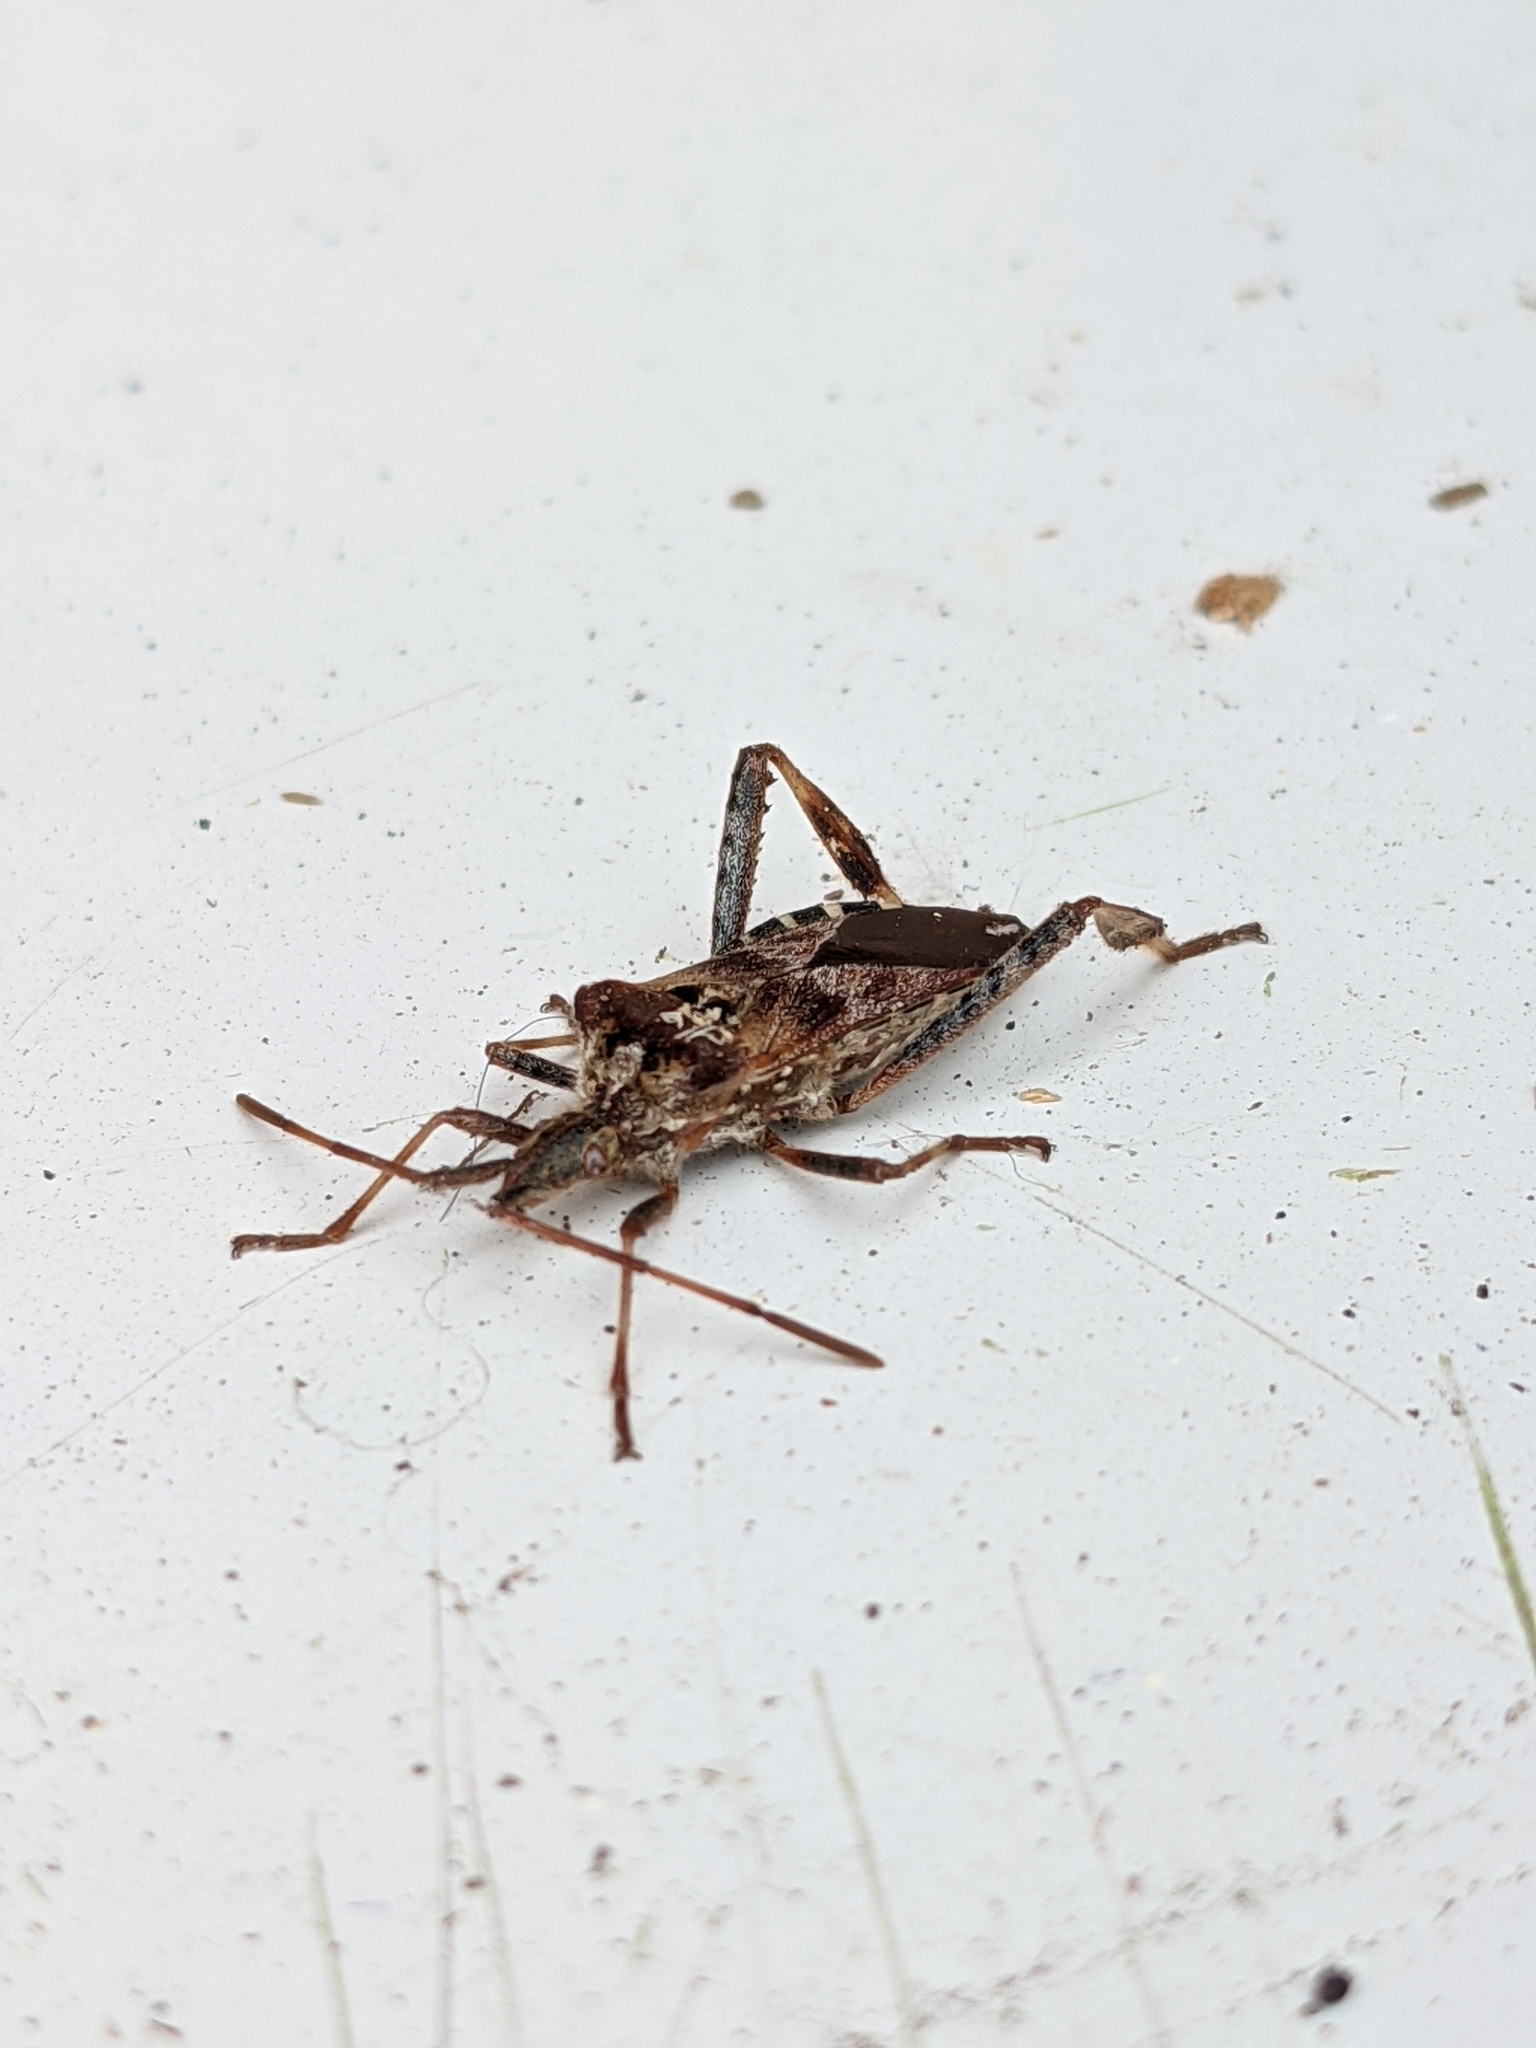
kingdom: Animalia
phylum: Arthropoda
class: Insecta
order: Hemiptera
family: Coreidae
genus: Leptoglossus
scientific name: Leptoglossus occidentalis
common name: Western conifer-seed bug
